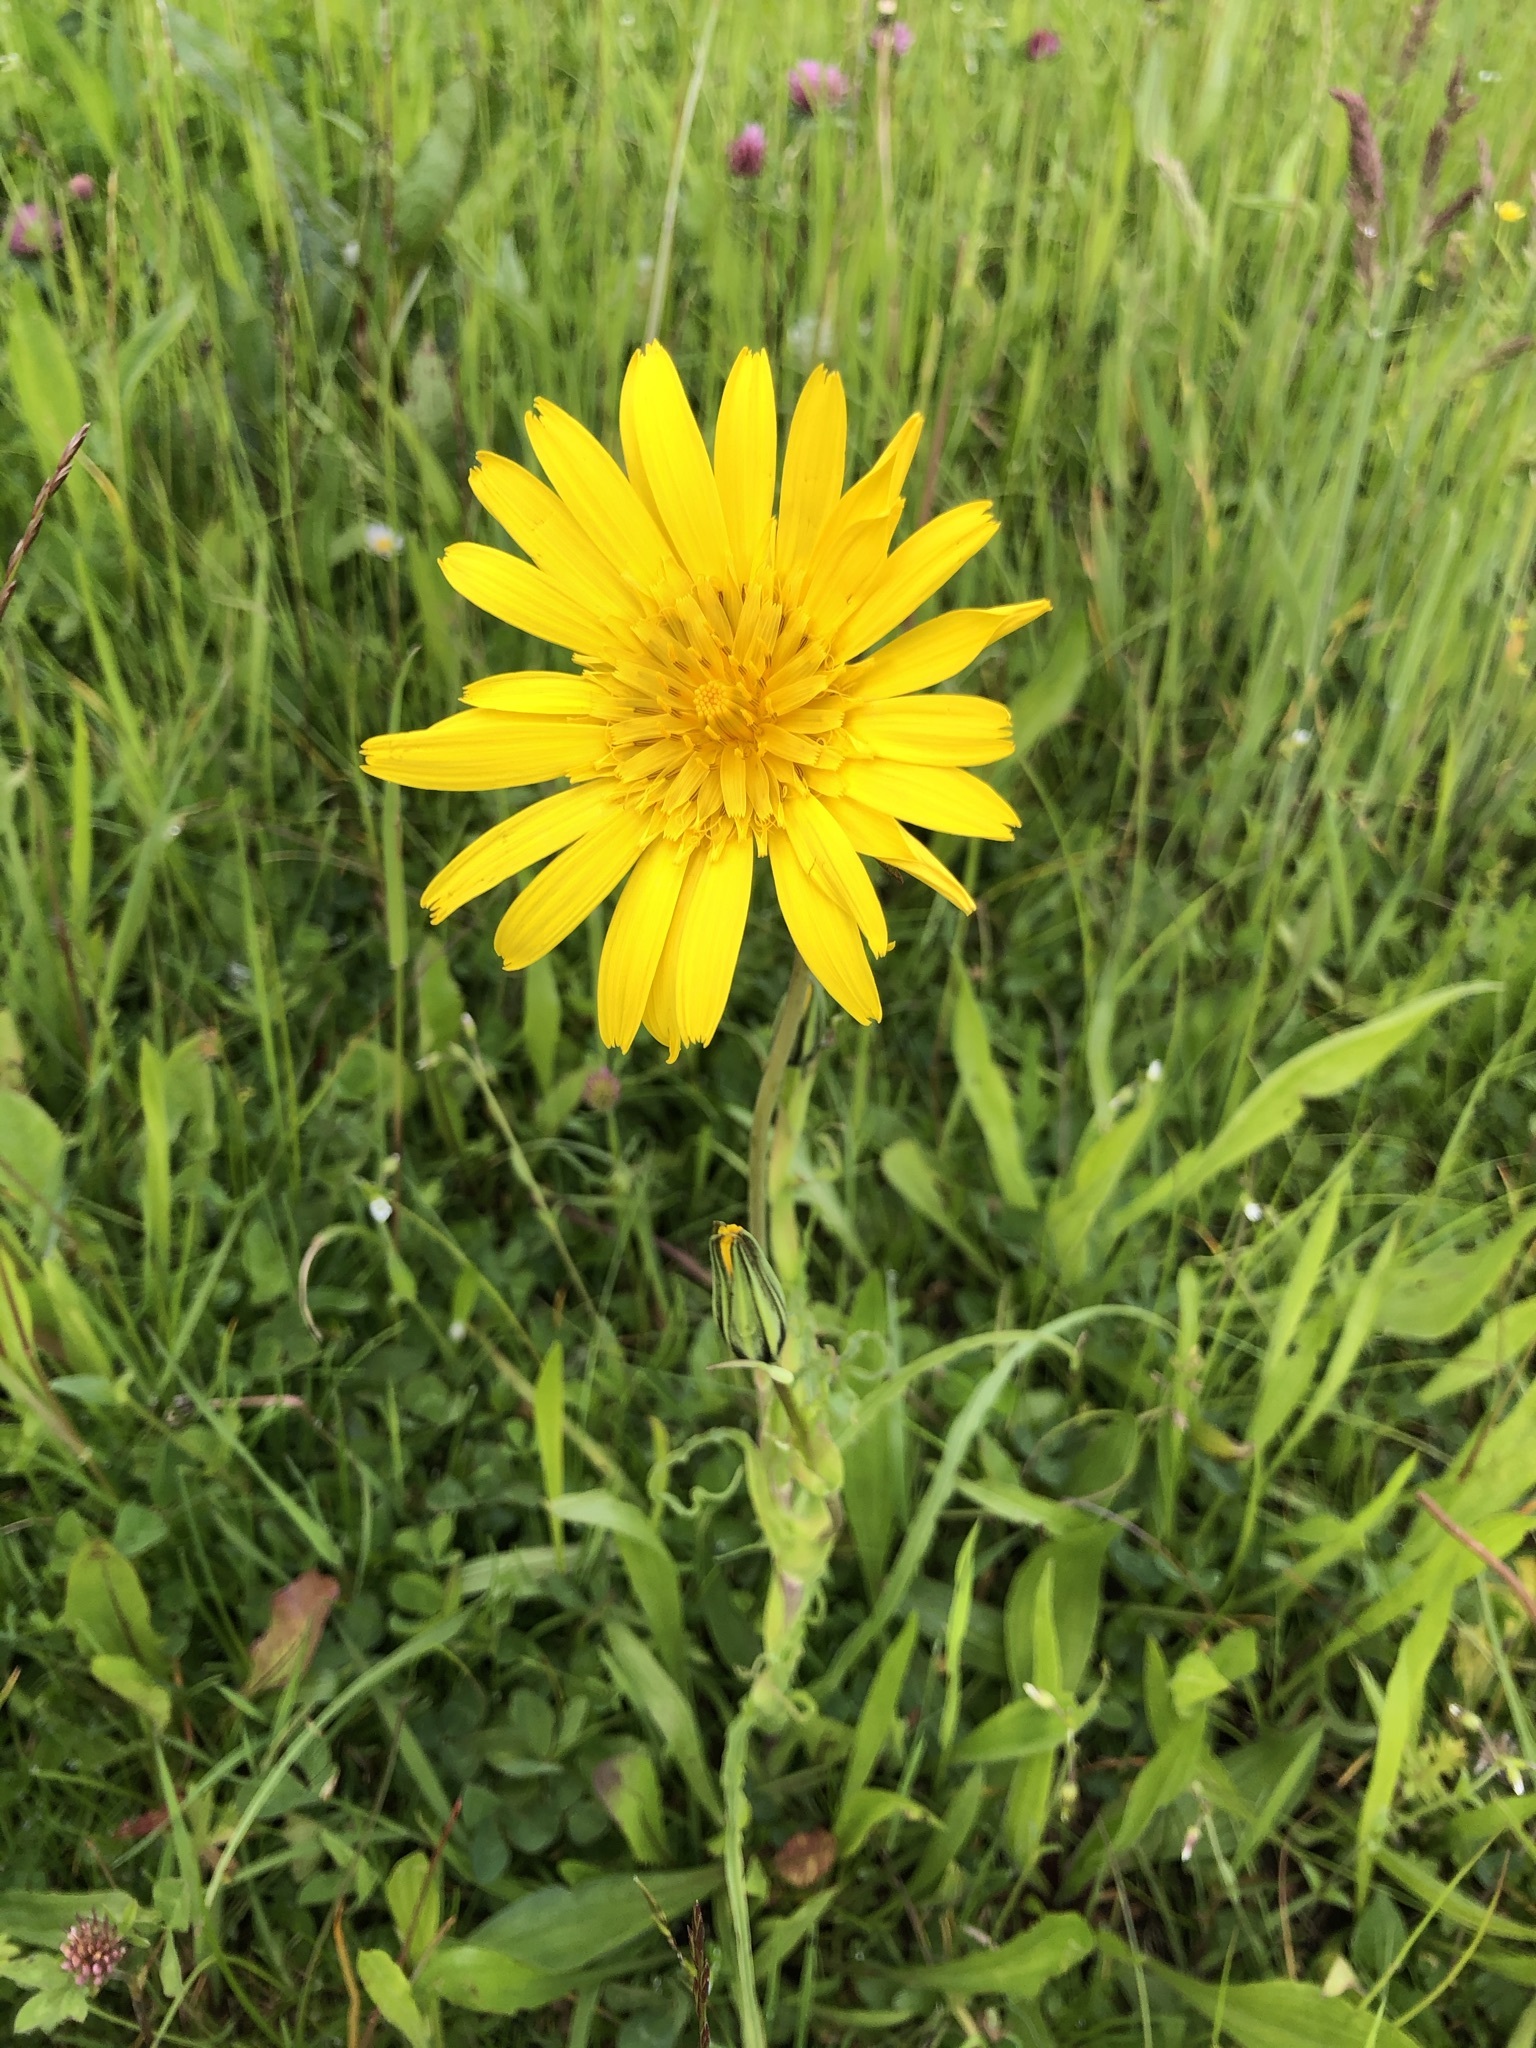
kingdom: Plantae
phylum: Tracheophyta
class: Magnoliopsida
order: Asterales
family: Asteraceae
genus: Tragopogon
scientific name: Tragopogon orientalis
